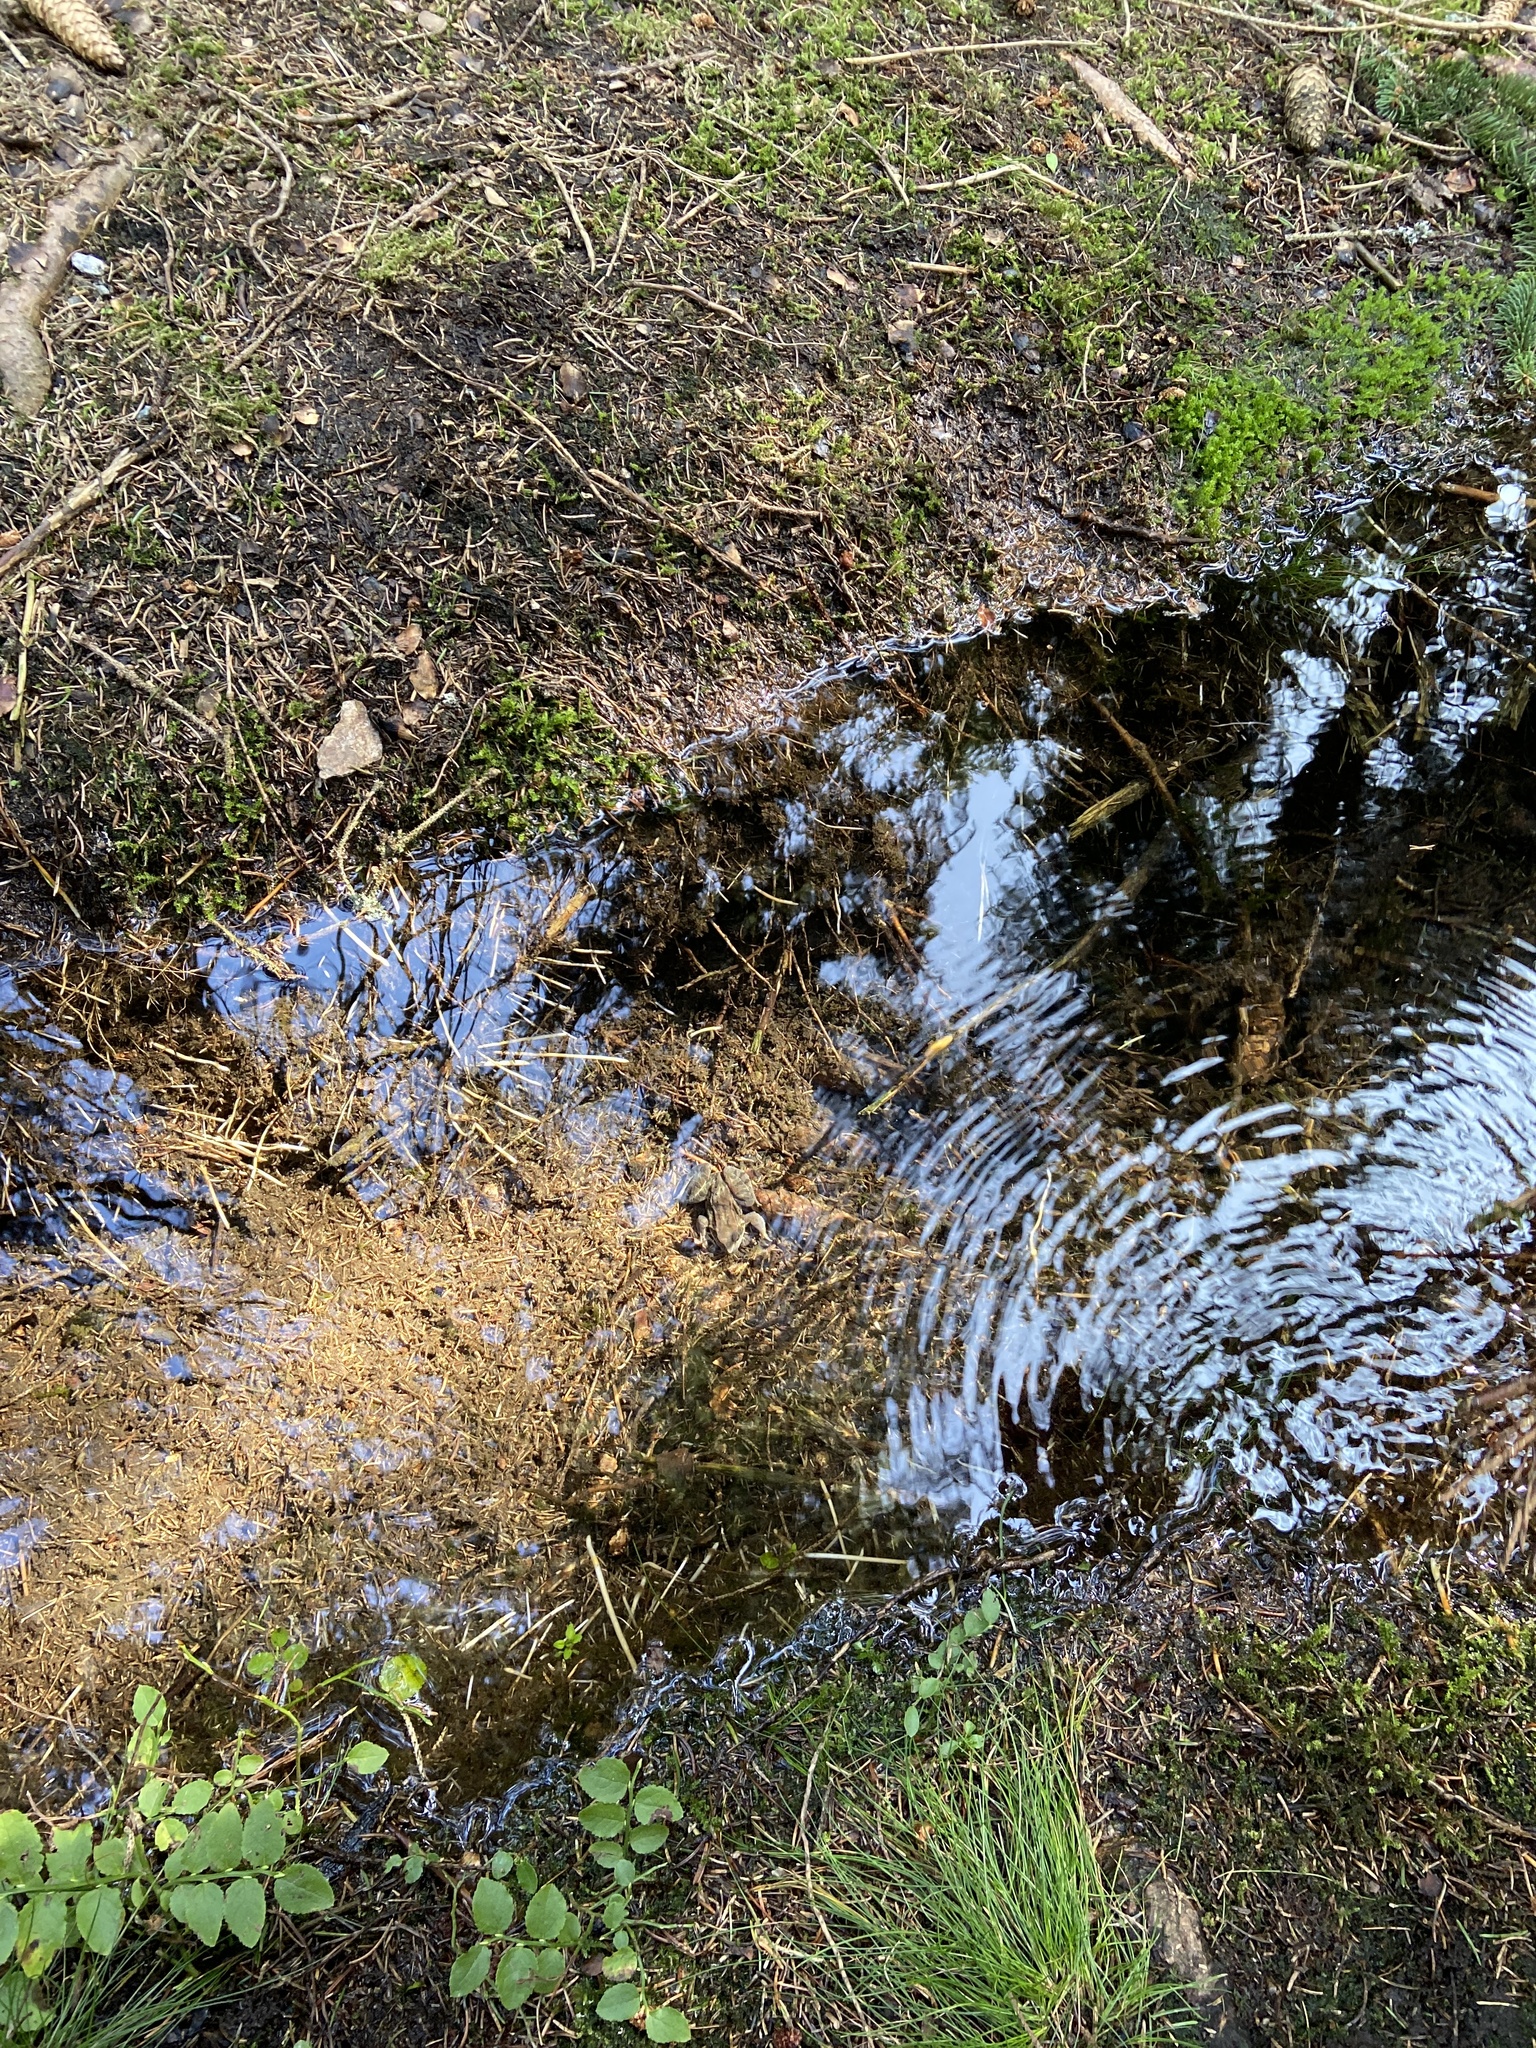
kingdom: Animalia
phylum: Chordata
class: Amphibia
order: Anura
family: Ranidae
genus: Rana
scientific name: Rana temporaria
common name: Common frog
